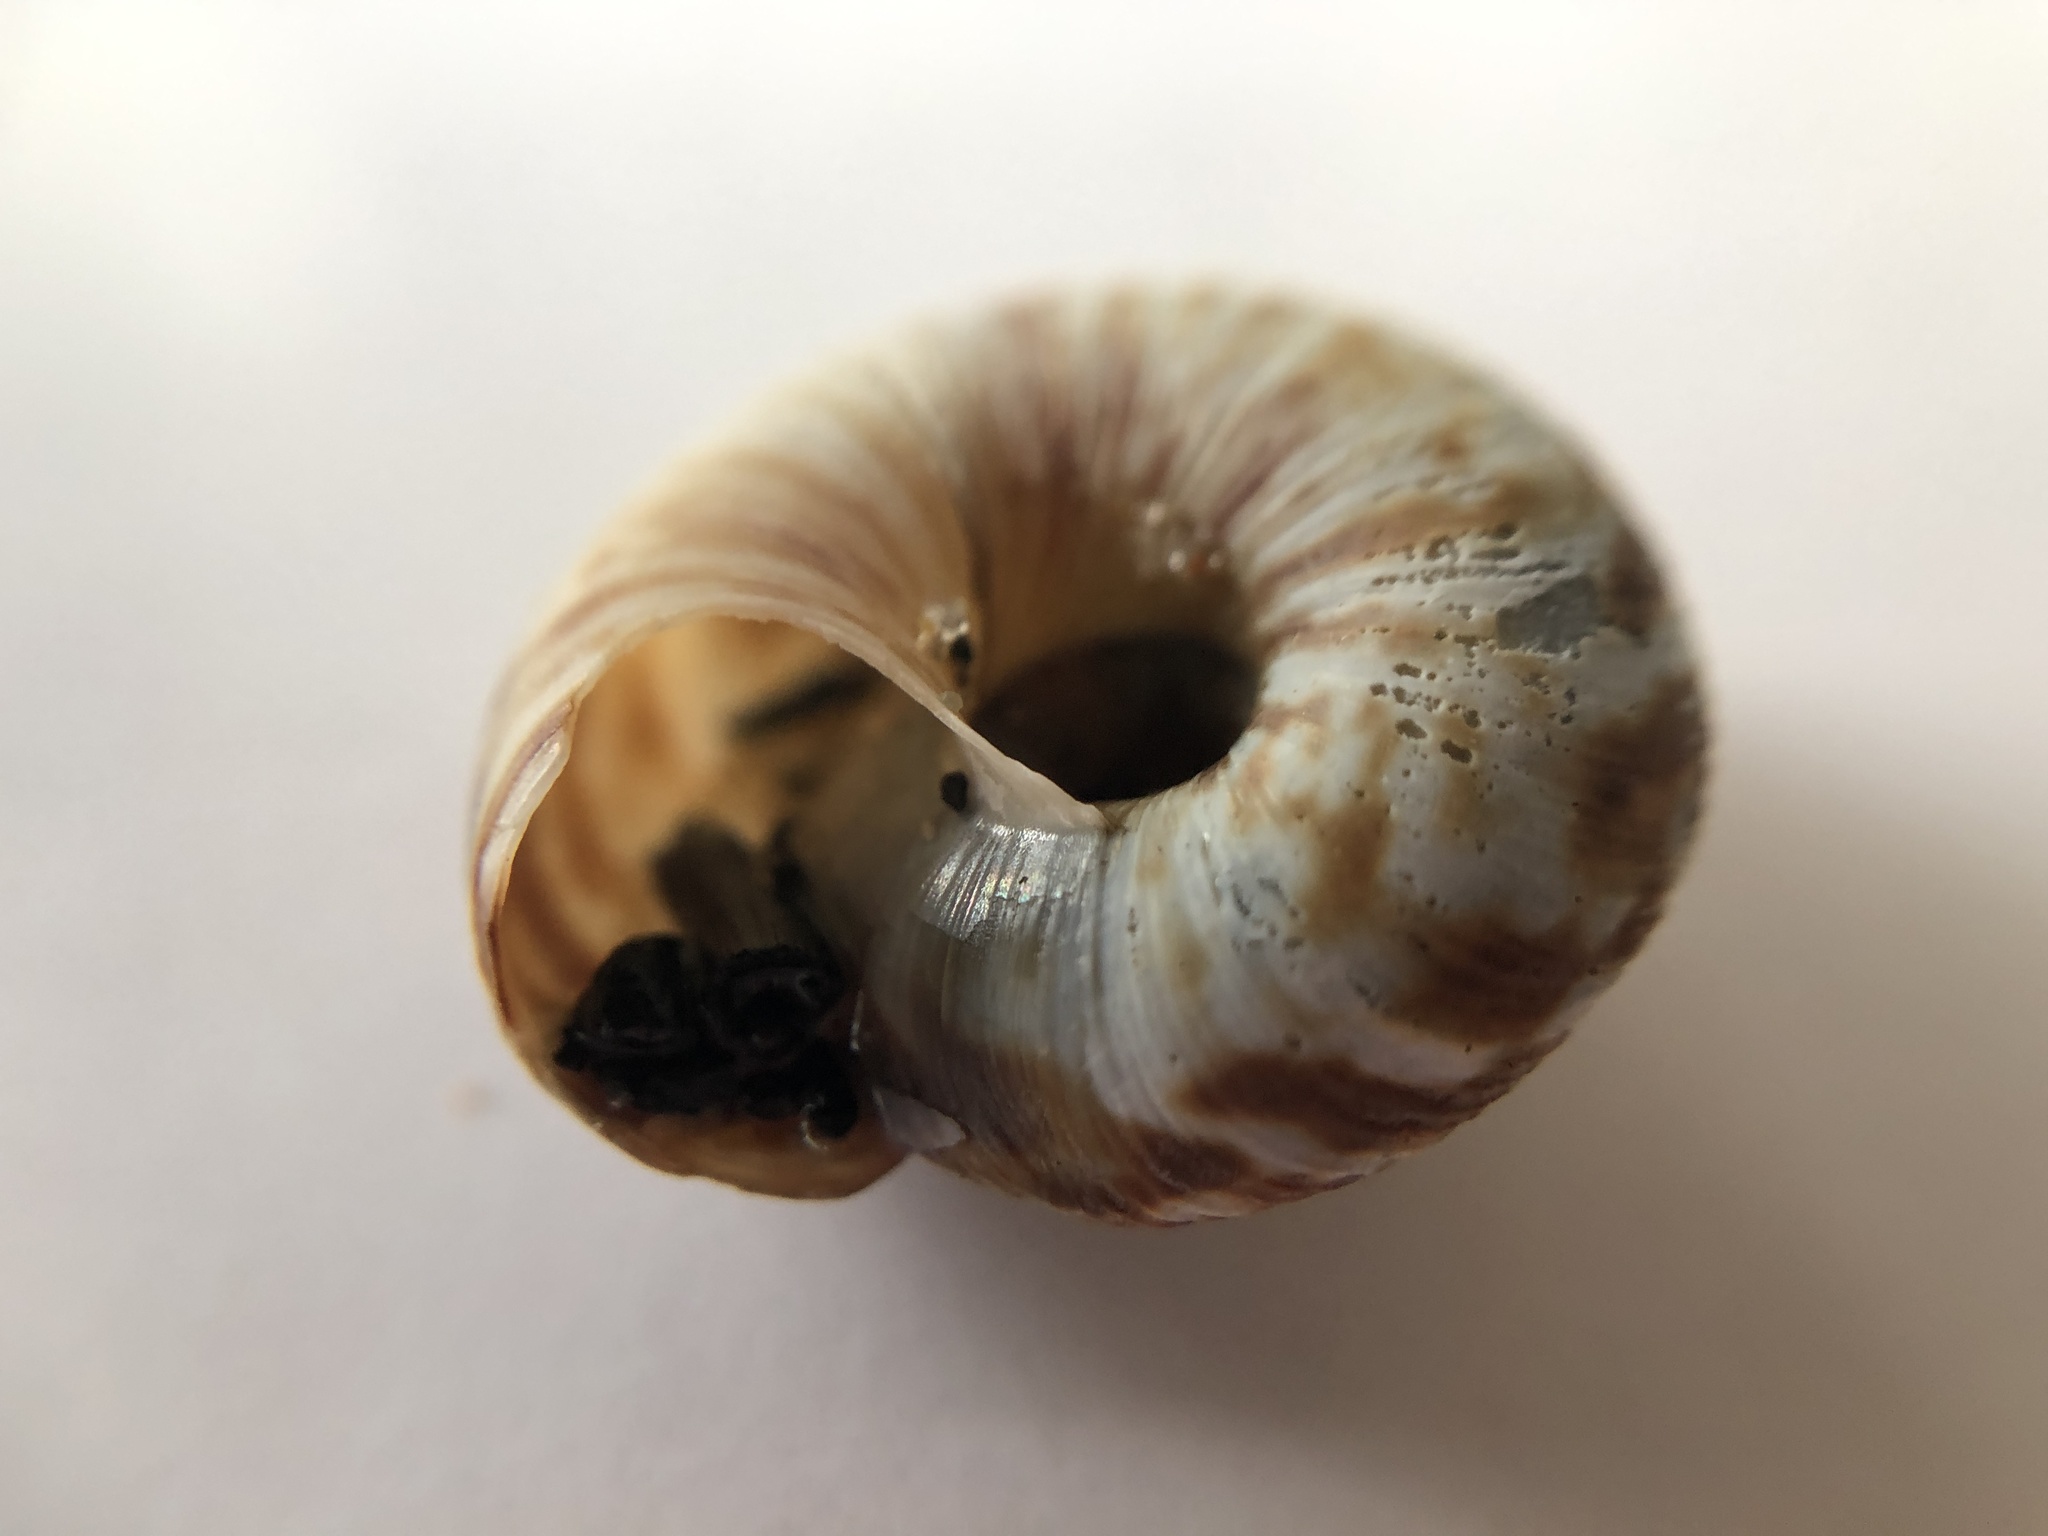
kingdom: Animalia
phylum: Mollusca
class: Gastropoda
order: Stylommatophora
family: Discidae
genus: Anguispira
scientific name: Anguispira alternata
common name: Flamed tigersnail
